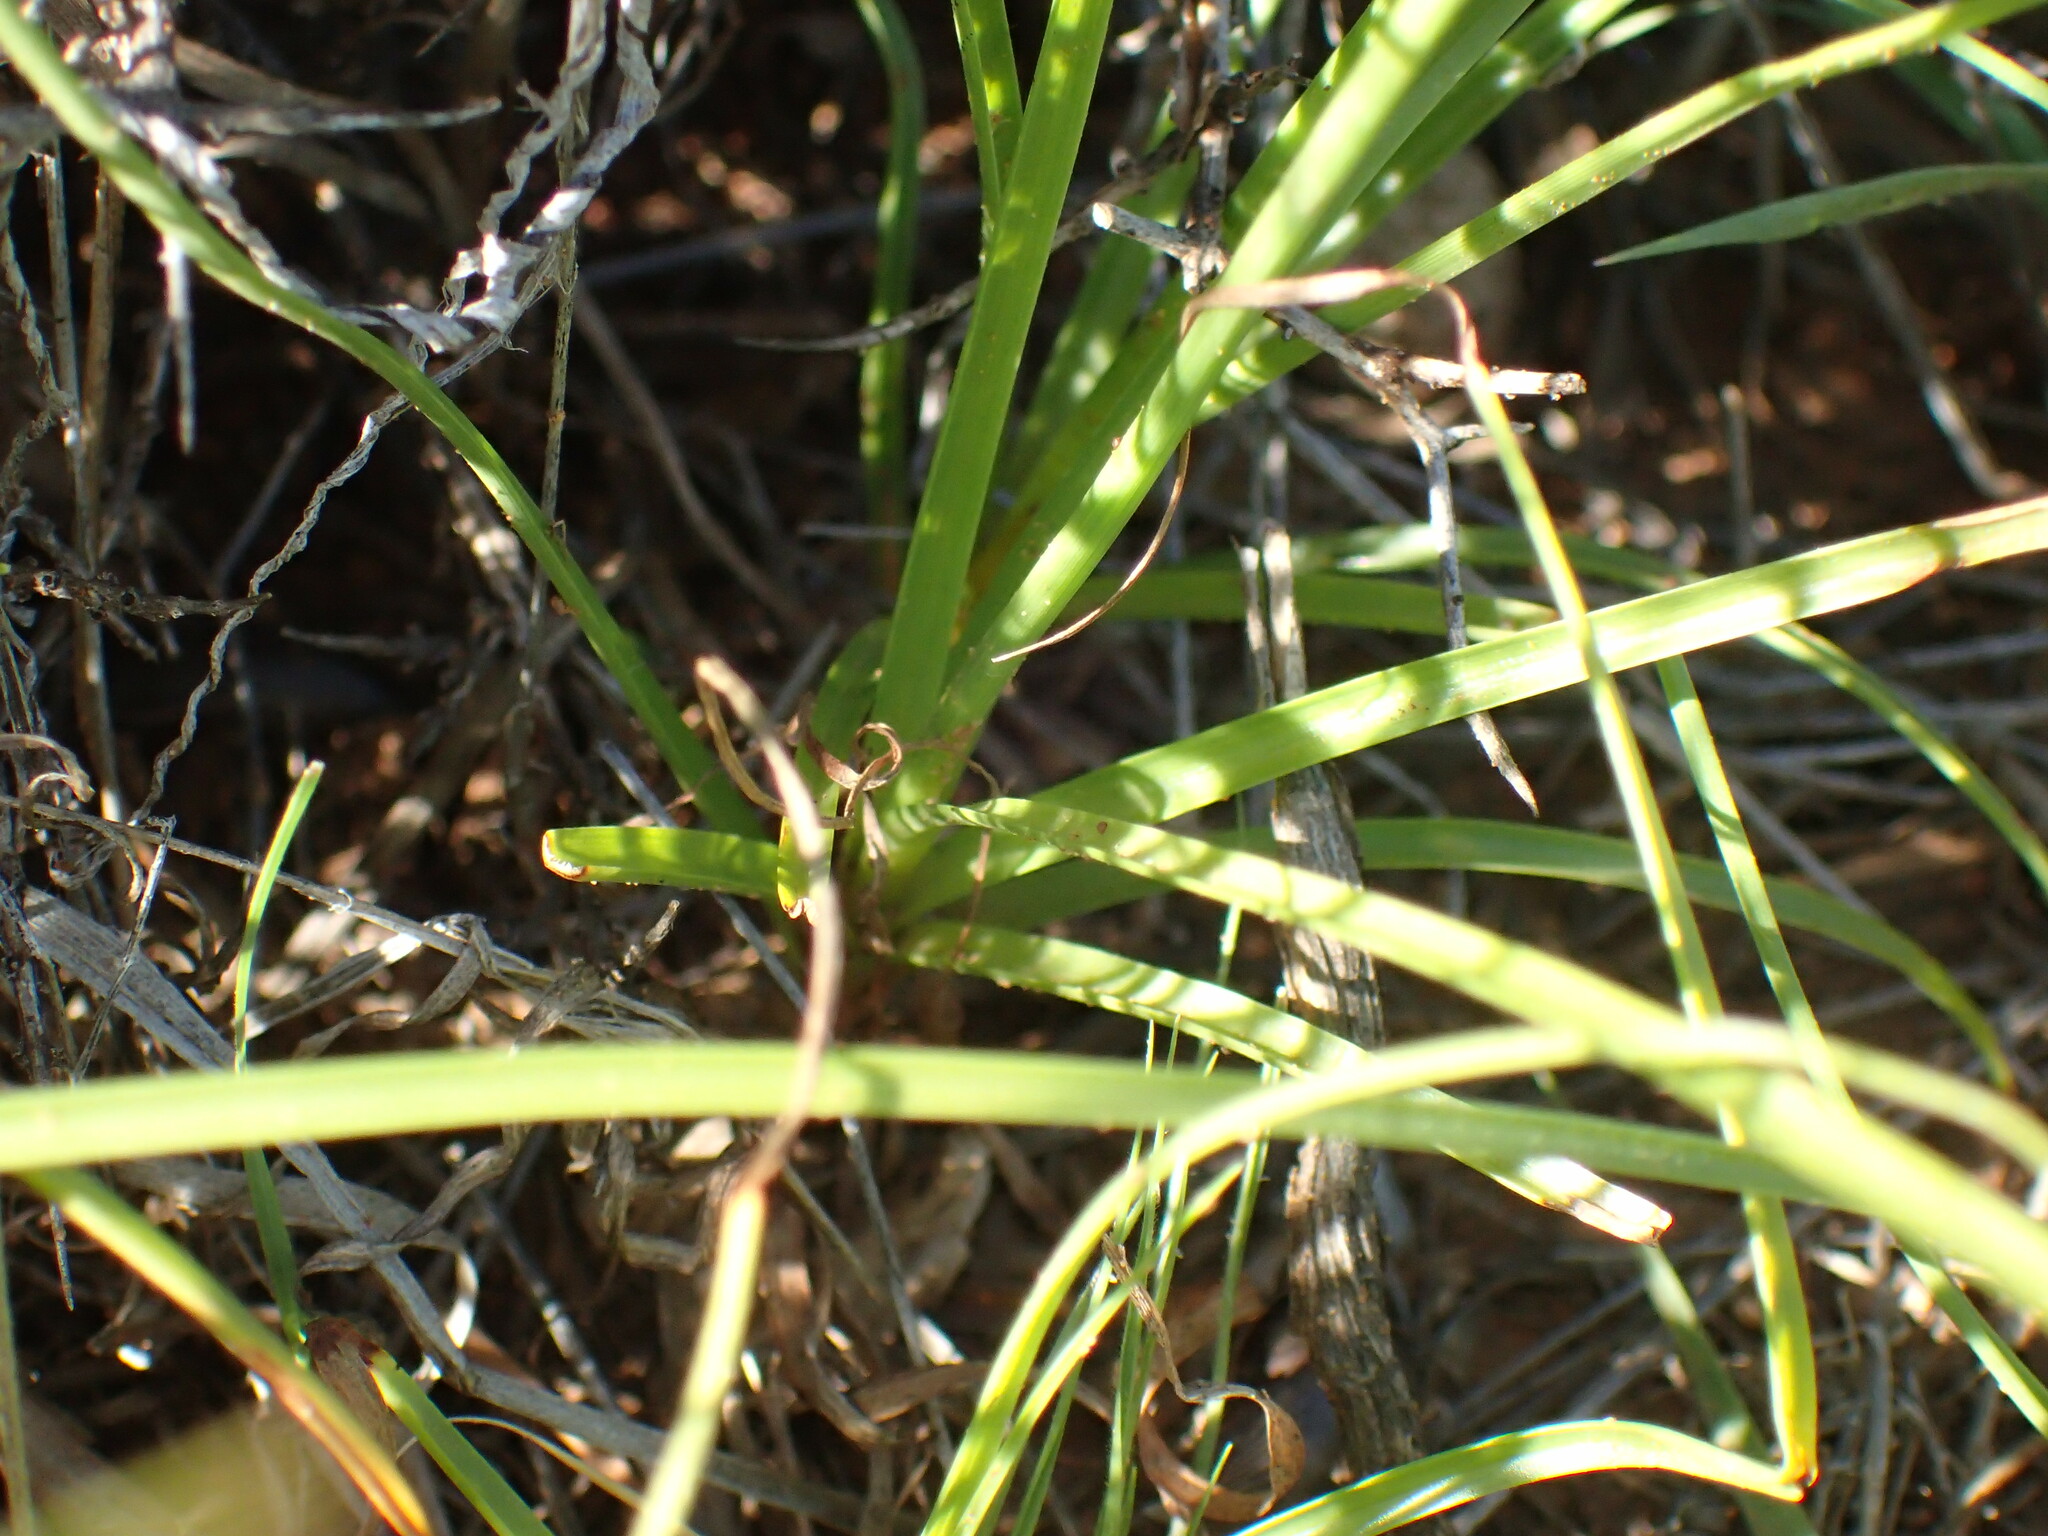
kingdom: Plantae
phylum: Tracheophyta
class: Liliopsida
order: Poales
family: Cyperaceae
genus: Cyperus
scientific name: Cyperus usitatus
